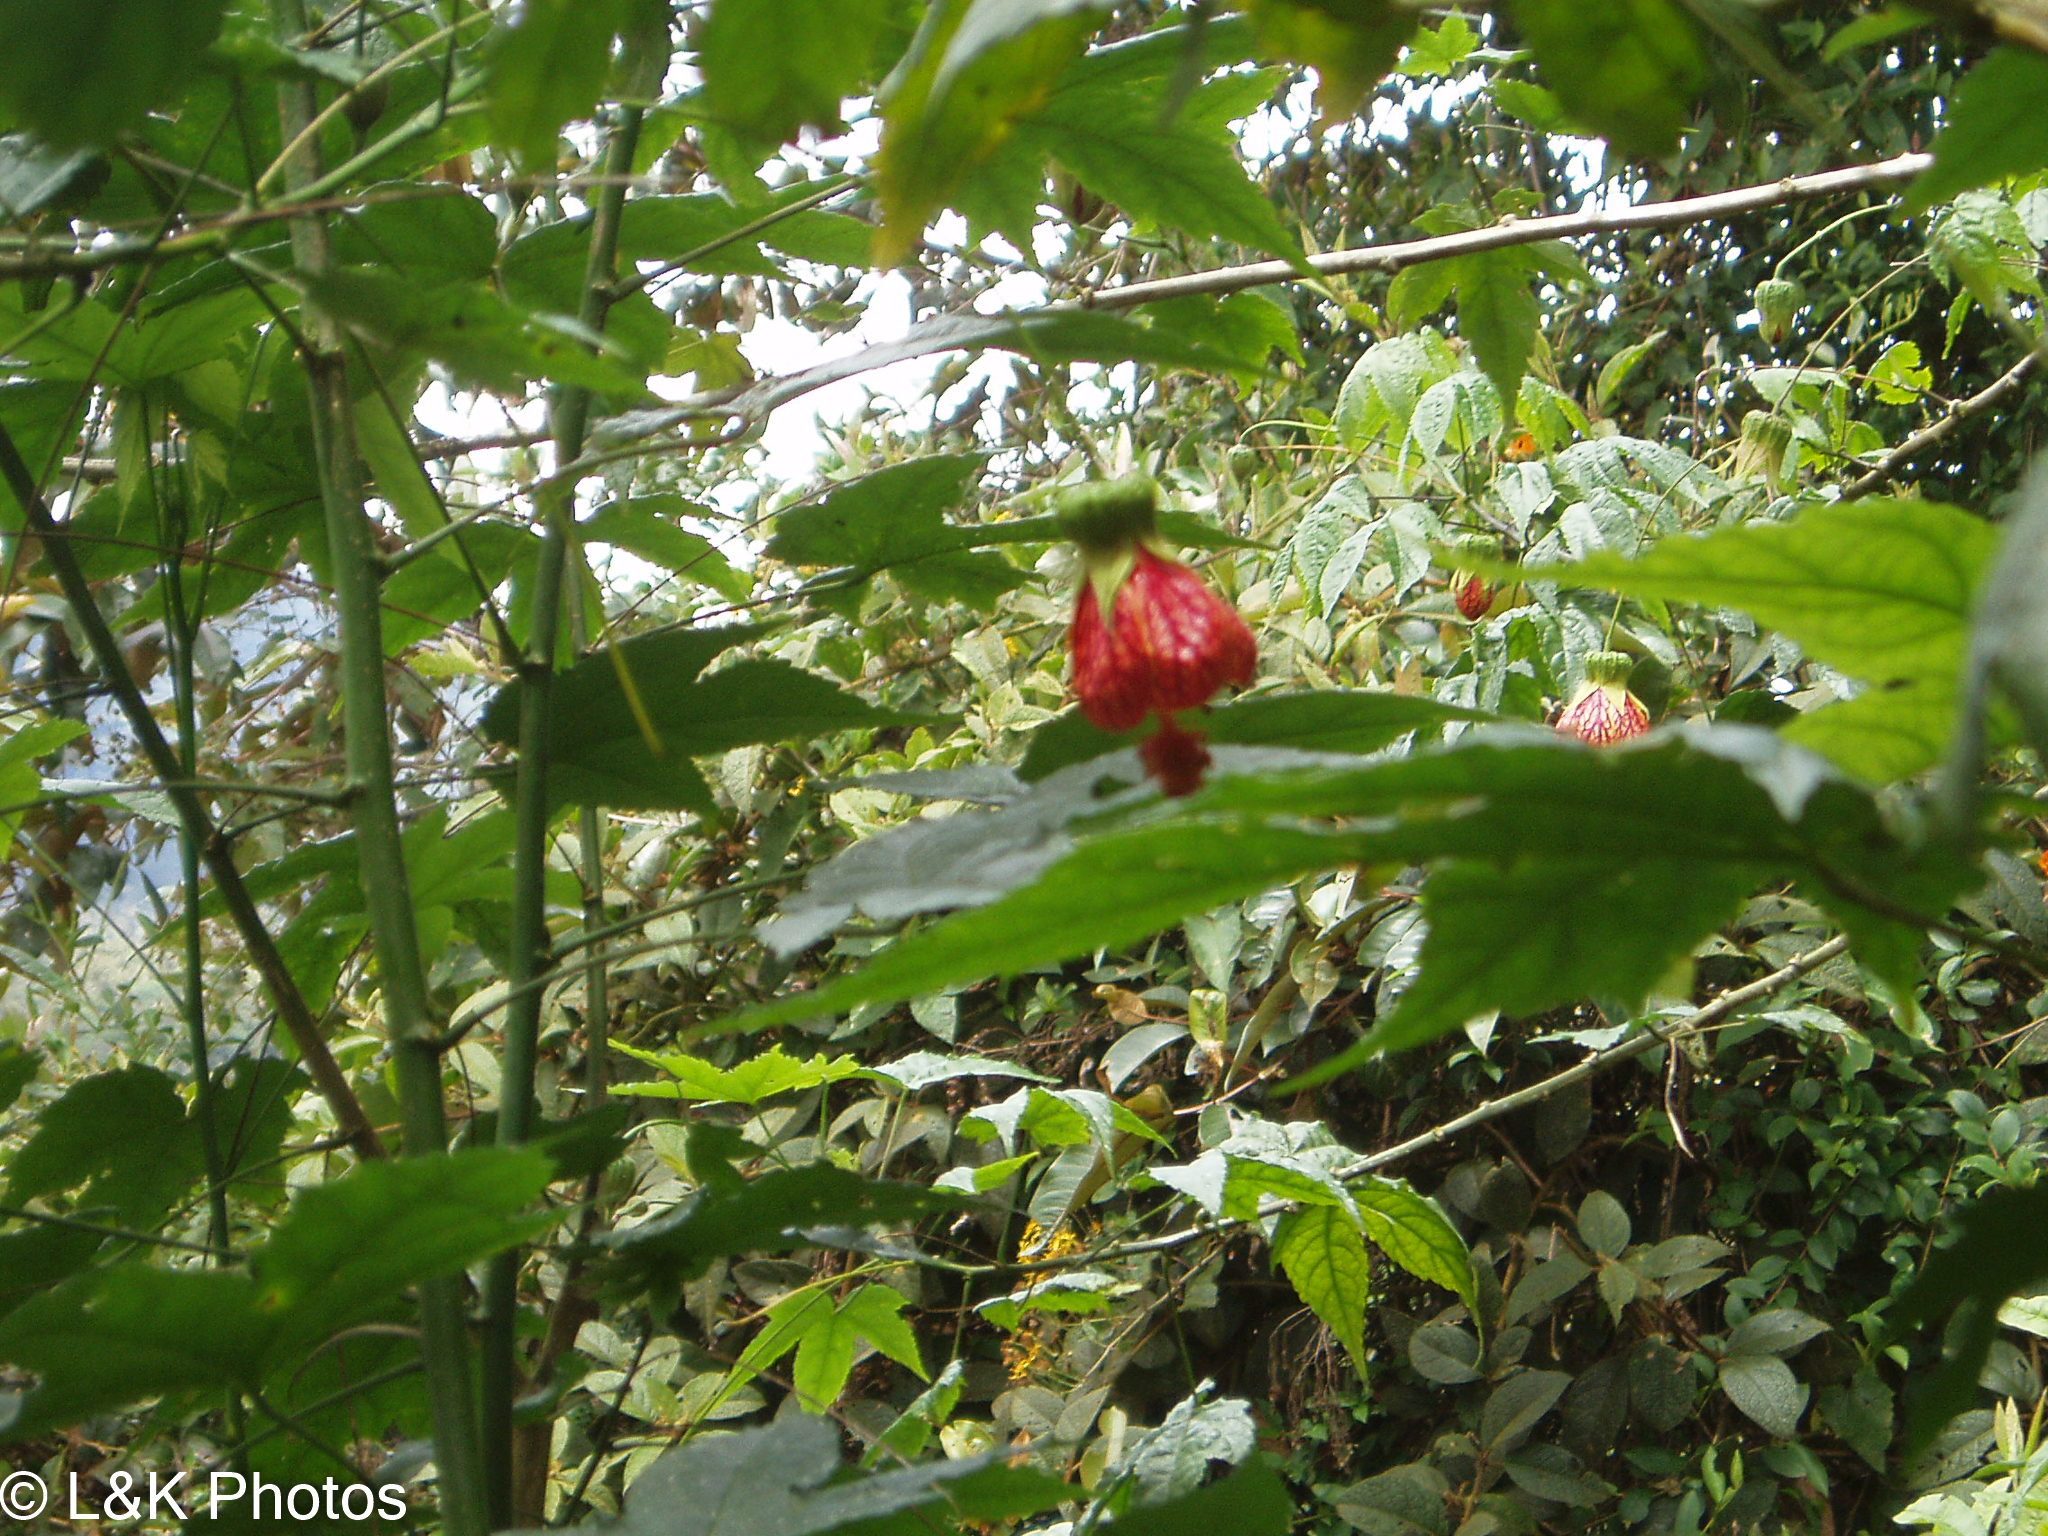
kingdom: Plantae
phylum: Tracheophyta
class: Magnoliopsida
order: Malvales
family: Malvaceae
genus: Callianthe
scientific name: Callianthe picta
